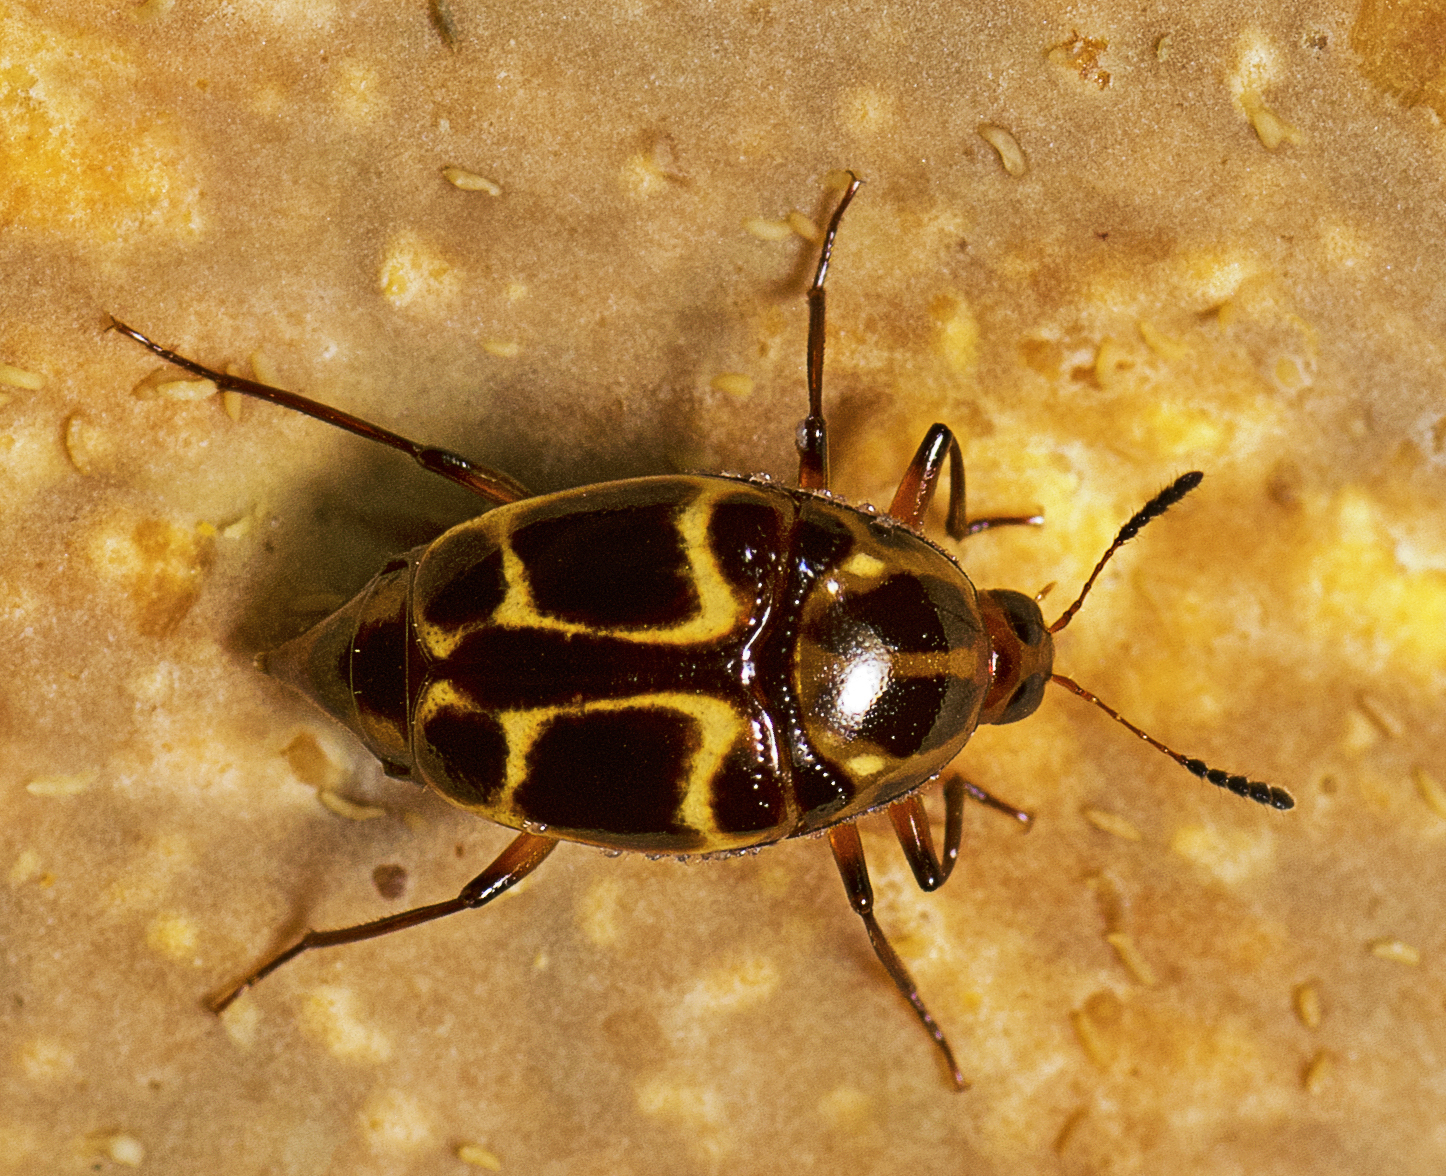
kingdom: Animalia
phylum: Arthropoda
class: Insecta
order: Coleoptera
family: Staphylinidae
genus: Scaphidium
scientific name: Scaphidium exornatum
